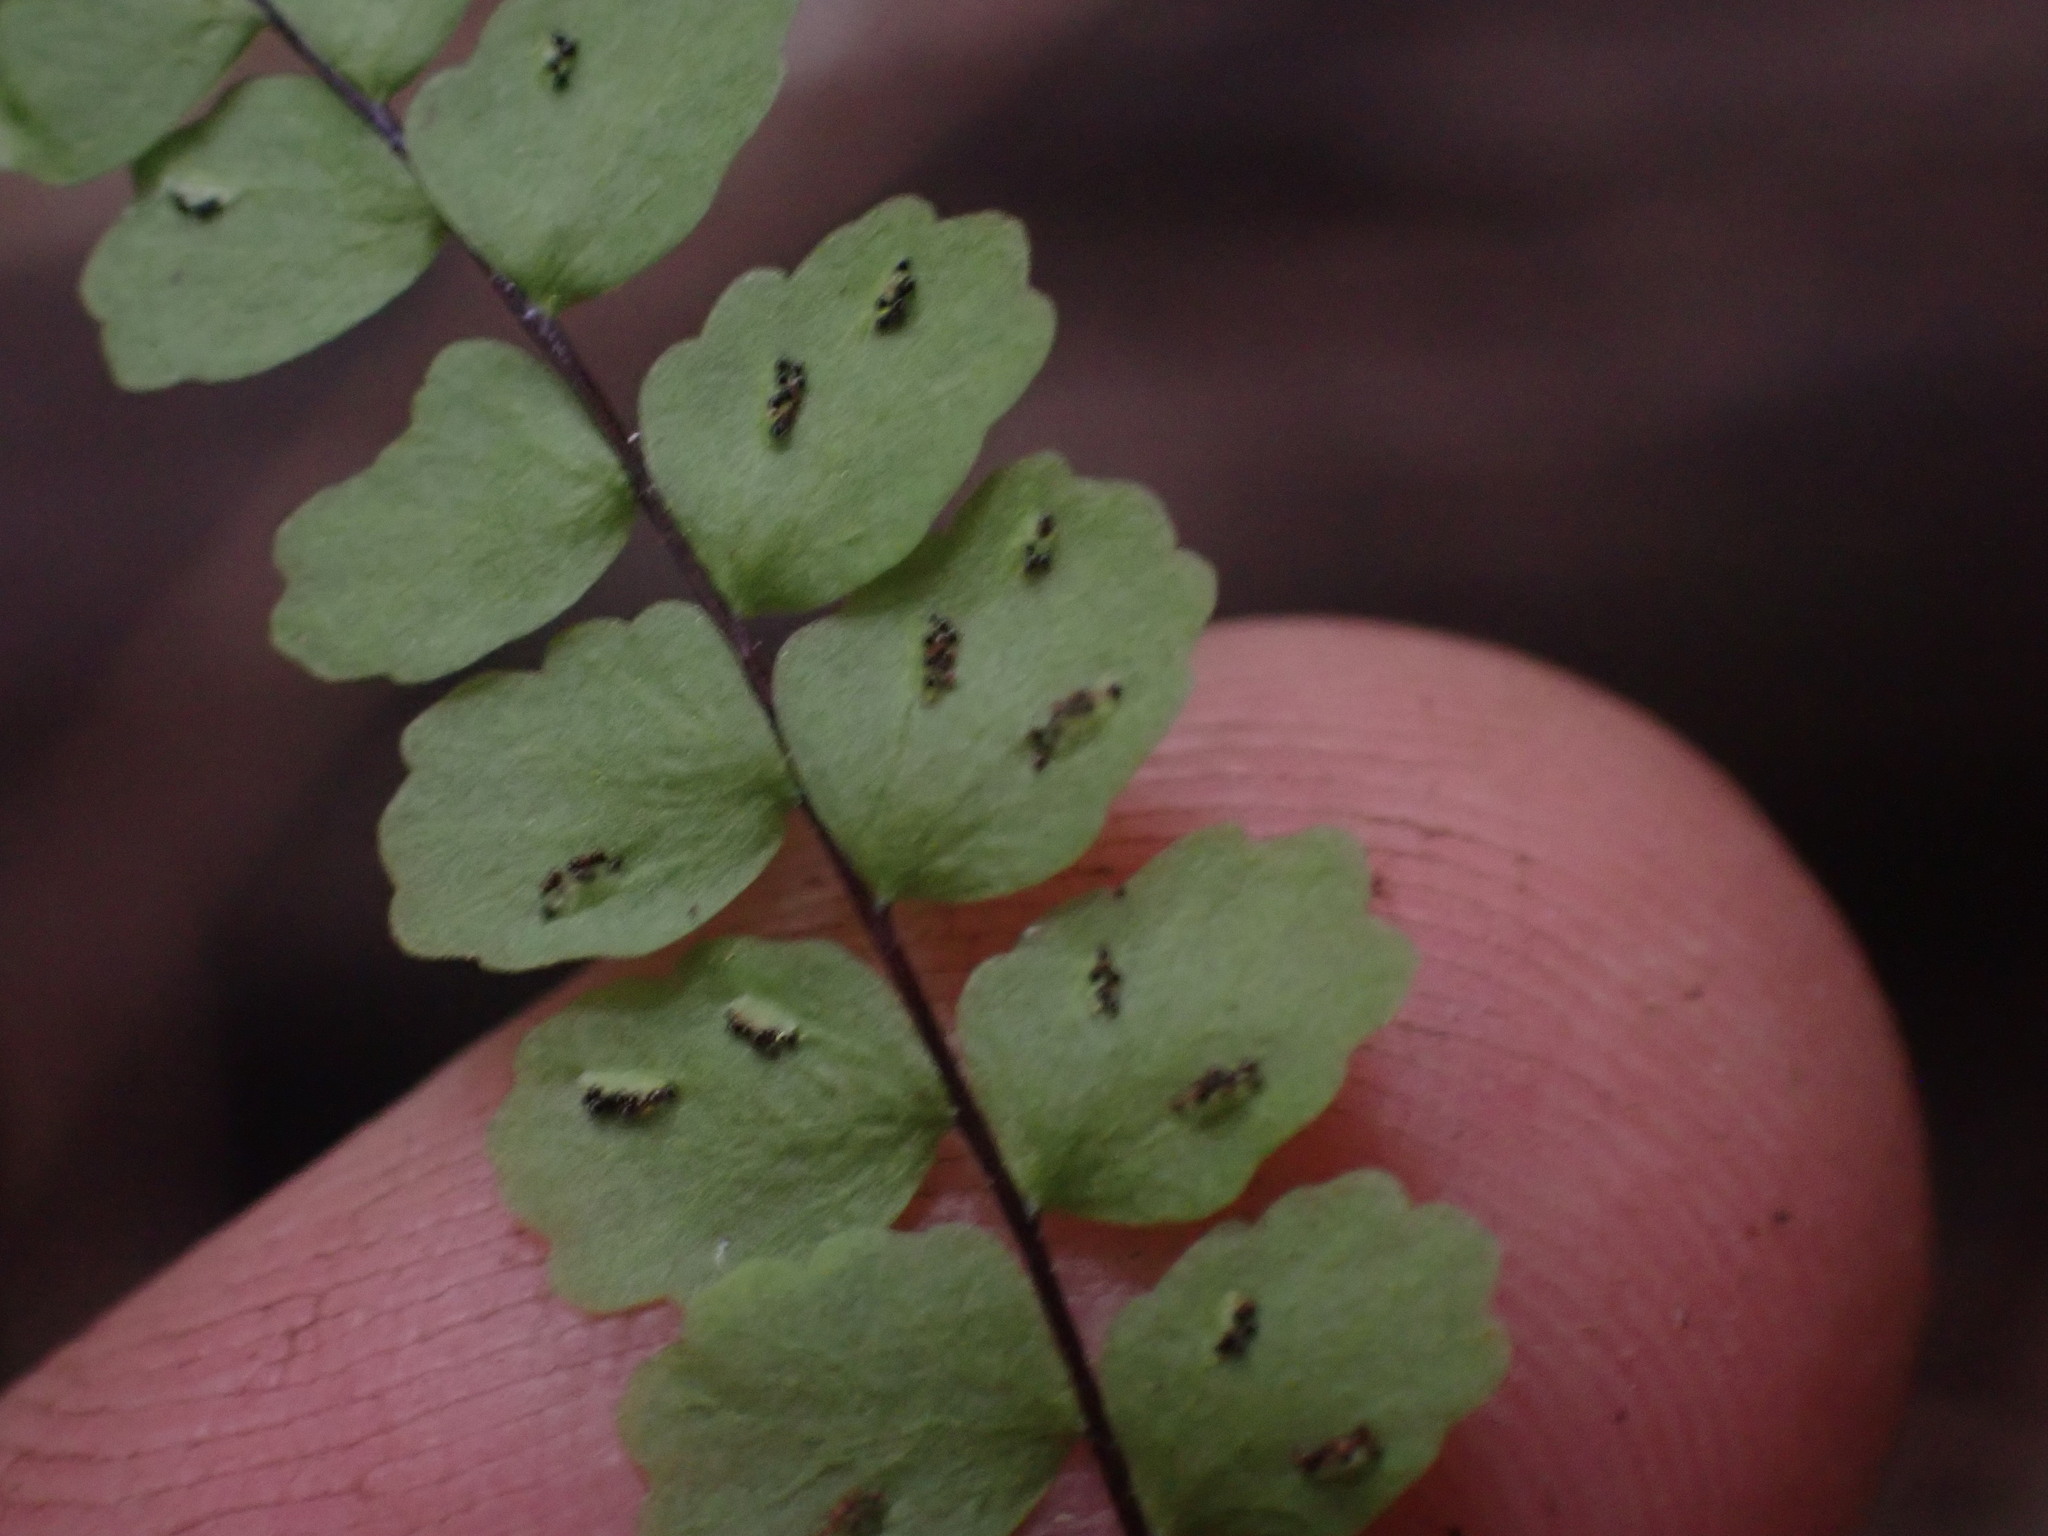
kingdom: Plantae
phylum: Tracheophyta
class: Polypodiopsida
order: Polypodiales
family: Aspleniaceae
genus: Asplenium
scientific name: Asplenium trichomanes
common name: Maidenhair spleenwort
